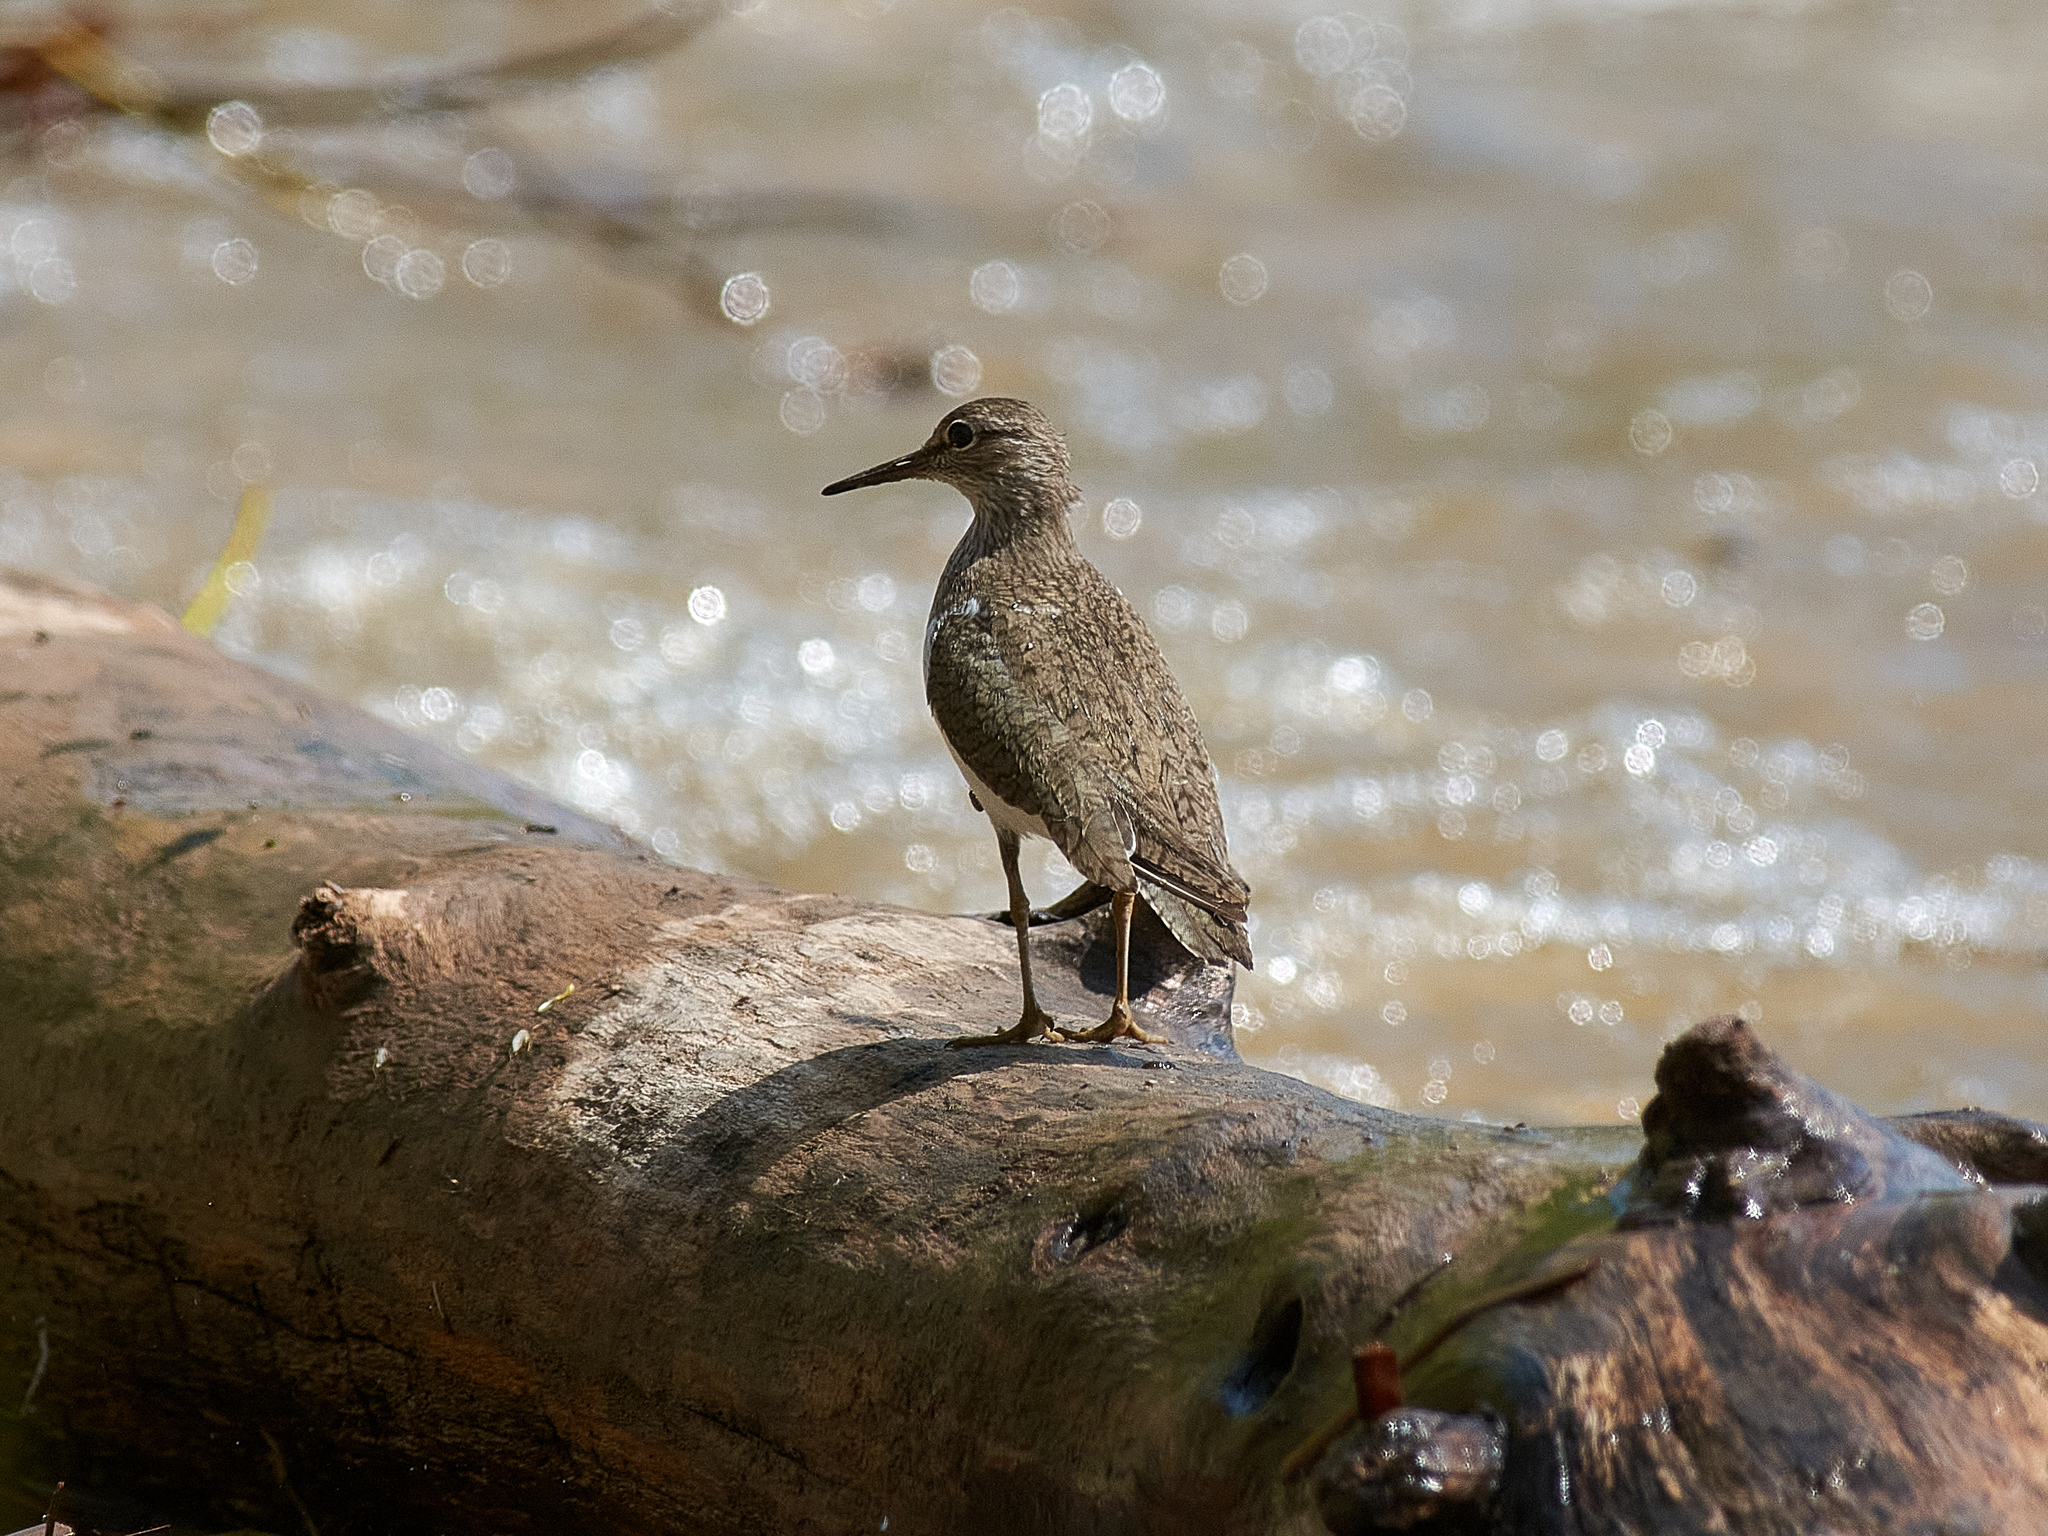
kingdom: Animalia
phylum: Chordata
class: Aves
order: Charadriiformes
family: Scolopacidae
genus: Actitis
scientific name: Actitis hypoleucos
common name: Common sandpiper
